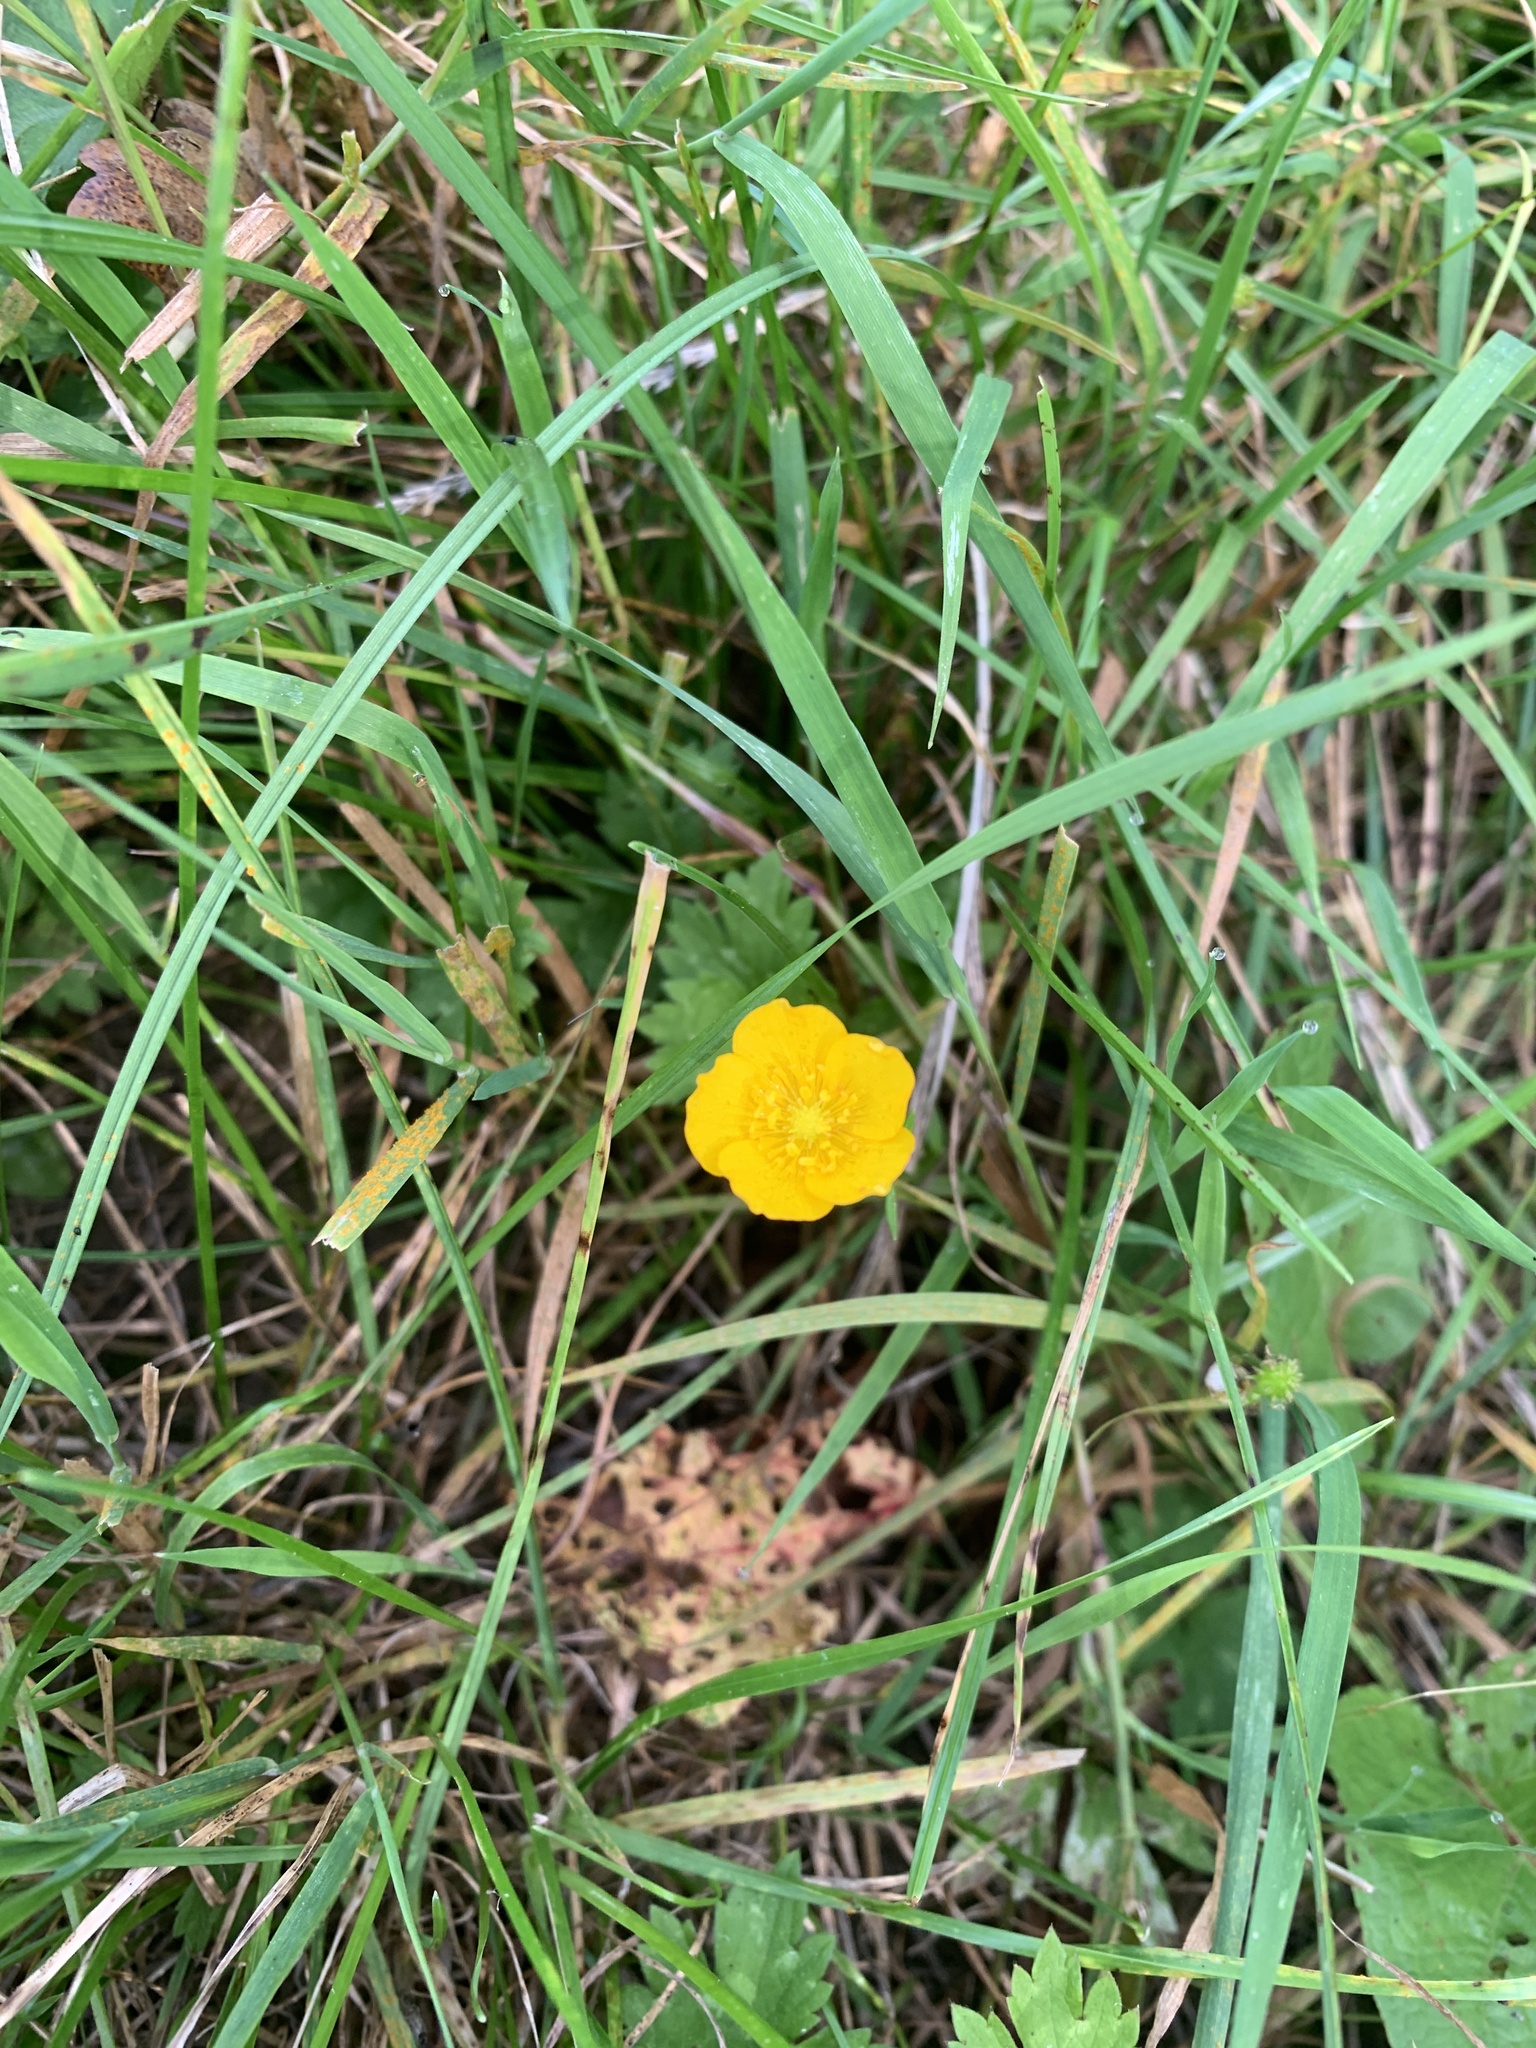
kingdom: Plantae
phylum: Tracheophyta
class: Magnoliopsida
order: Ranunculales
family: Ranunculaceae
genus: Ranunculus
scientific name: Ranunculus acris
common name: Meadow buttercup
